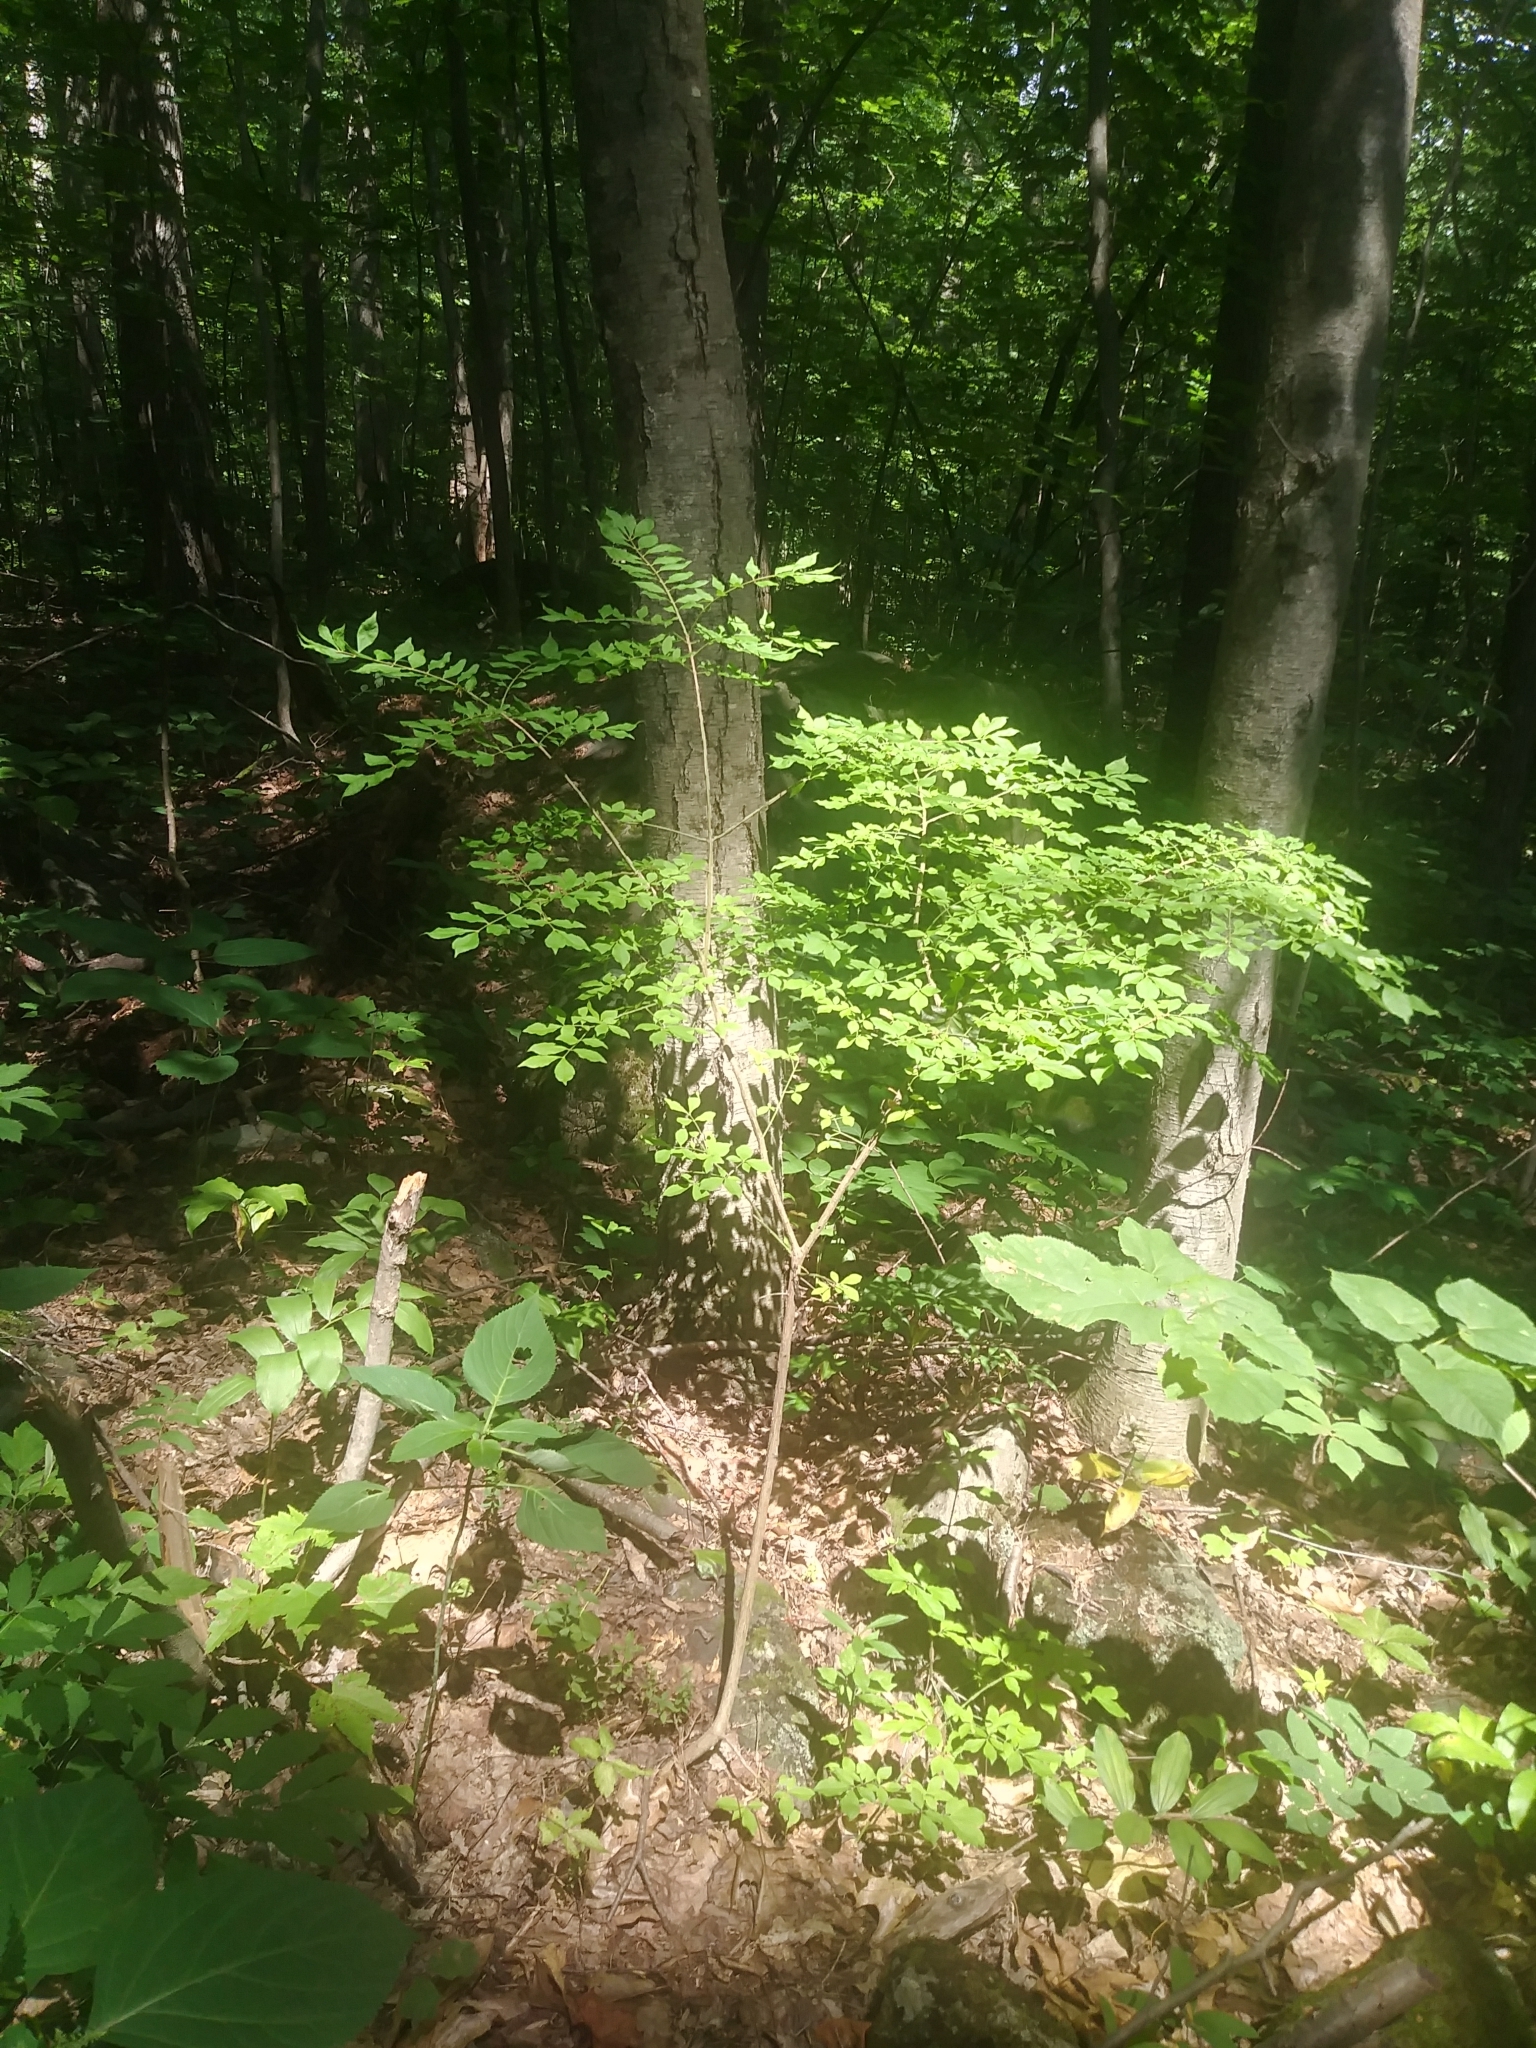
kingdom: Plantae
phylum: Tracheophyta
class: Magnoliopsida
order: Celastrales
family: Celastraceae
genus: Euonymus
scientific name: Euonymus alatus
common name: Winged euonymus
